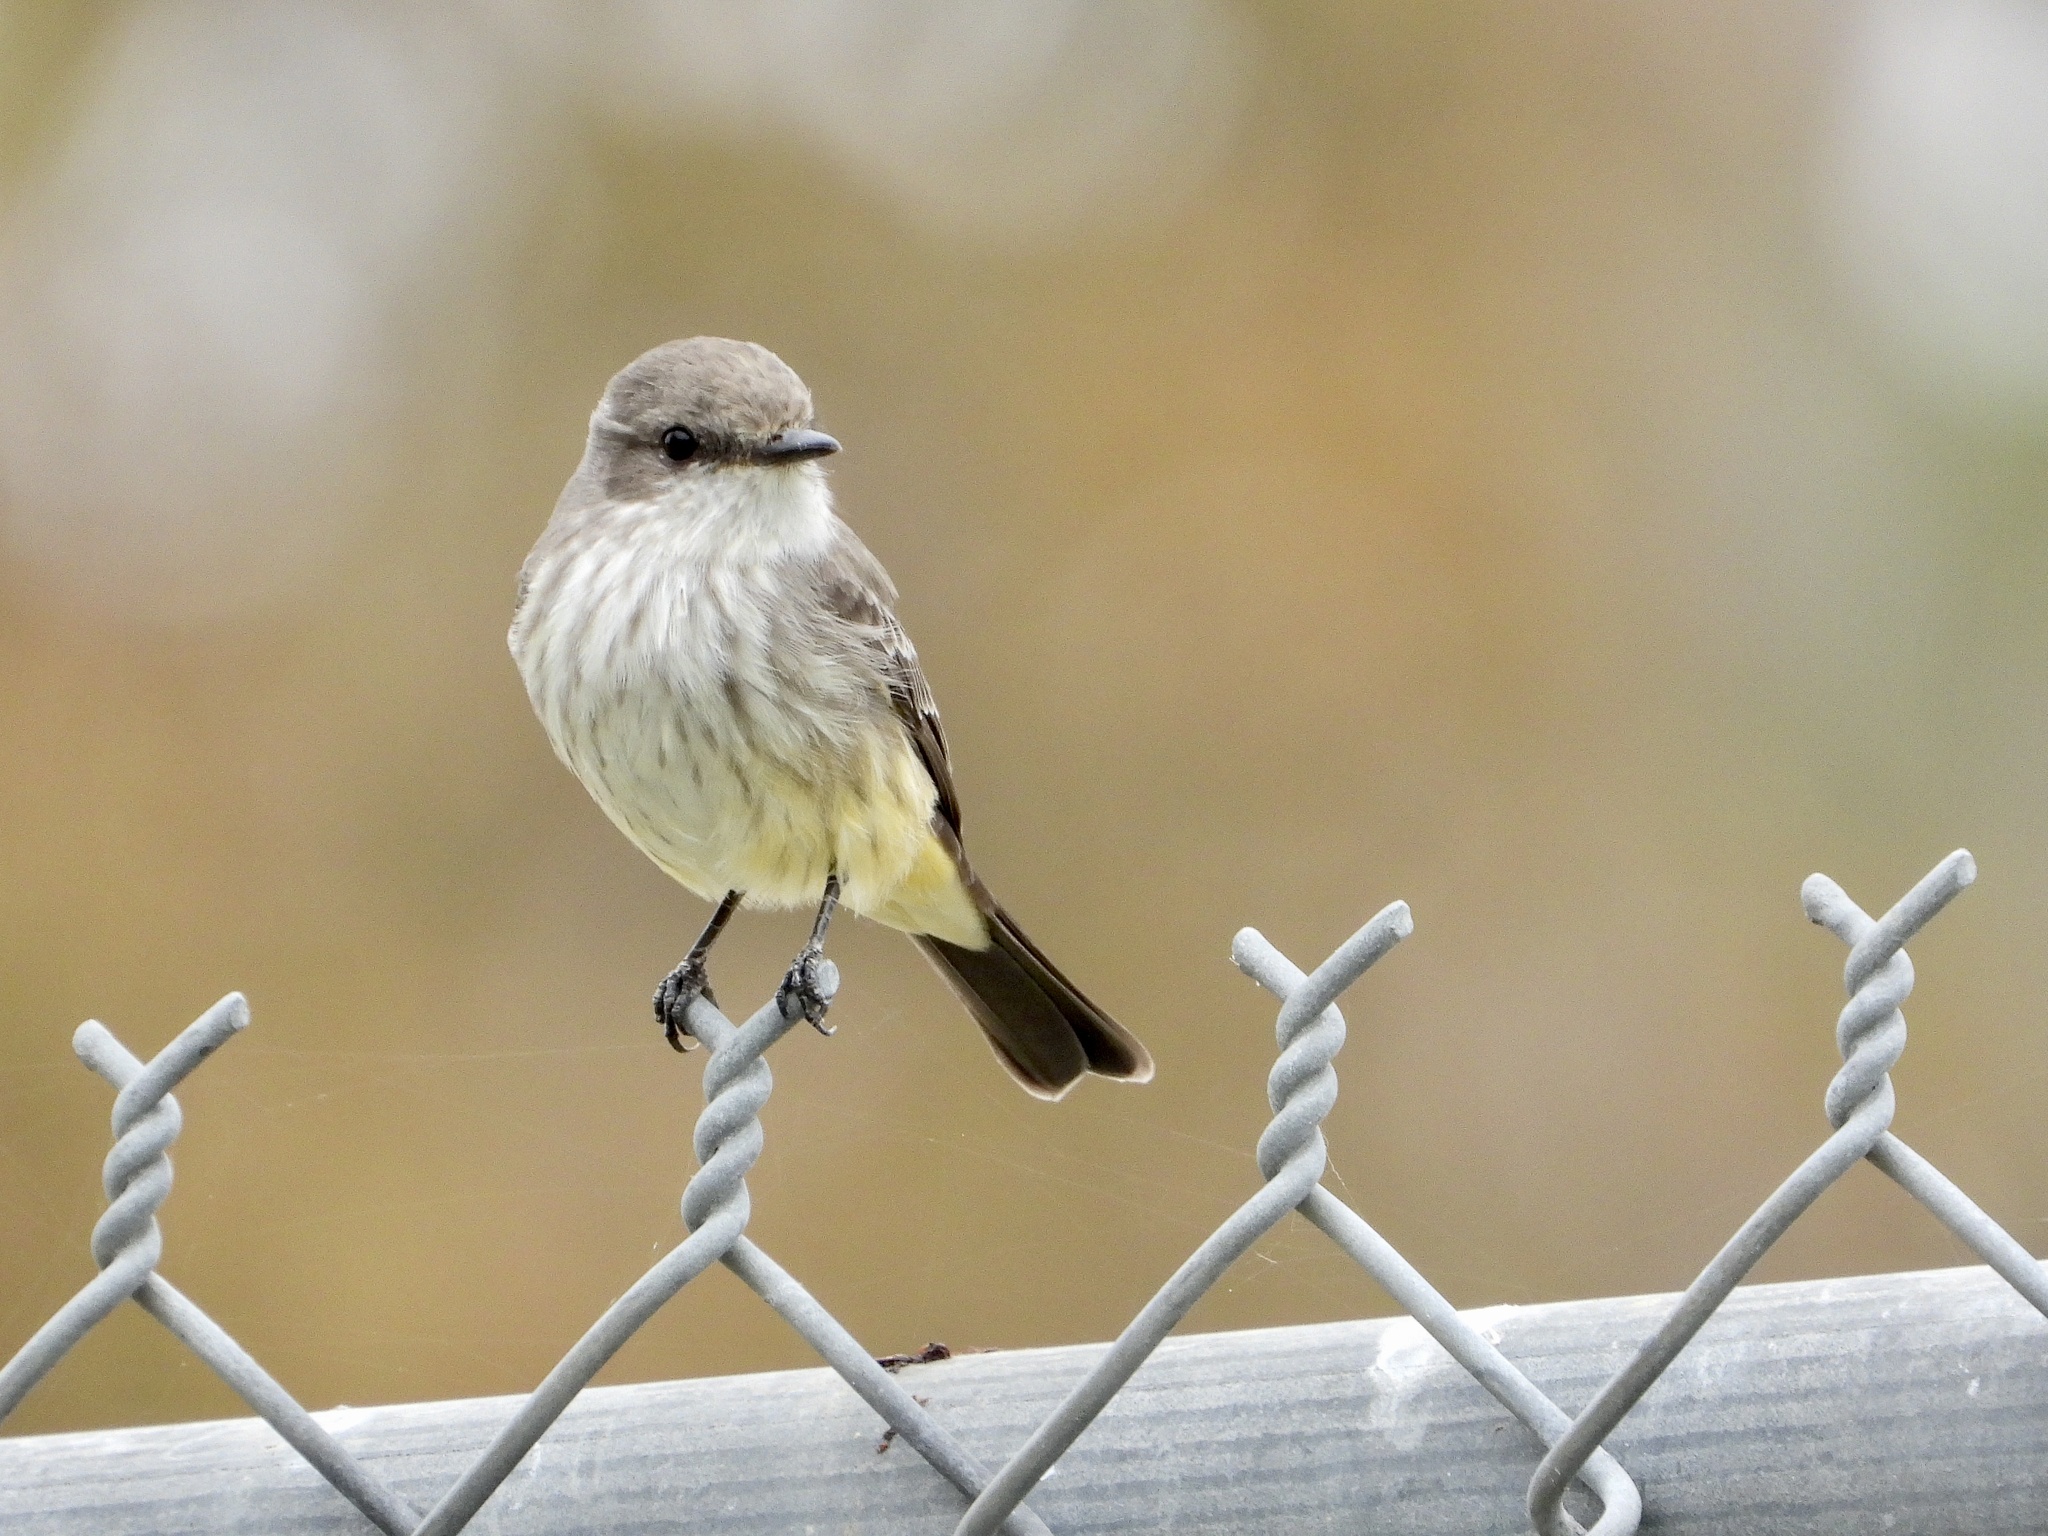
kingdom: Animalia
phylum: Chordata
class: Aves
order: Passeriformes
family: Tyrannidae
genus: Pyrocephalus
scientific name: Pyrocephalus rubinus
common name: Vermilion flycatcher
